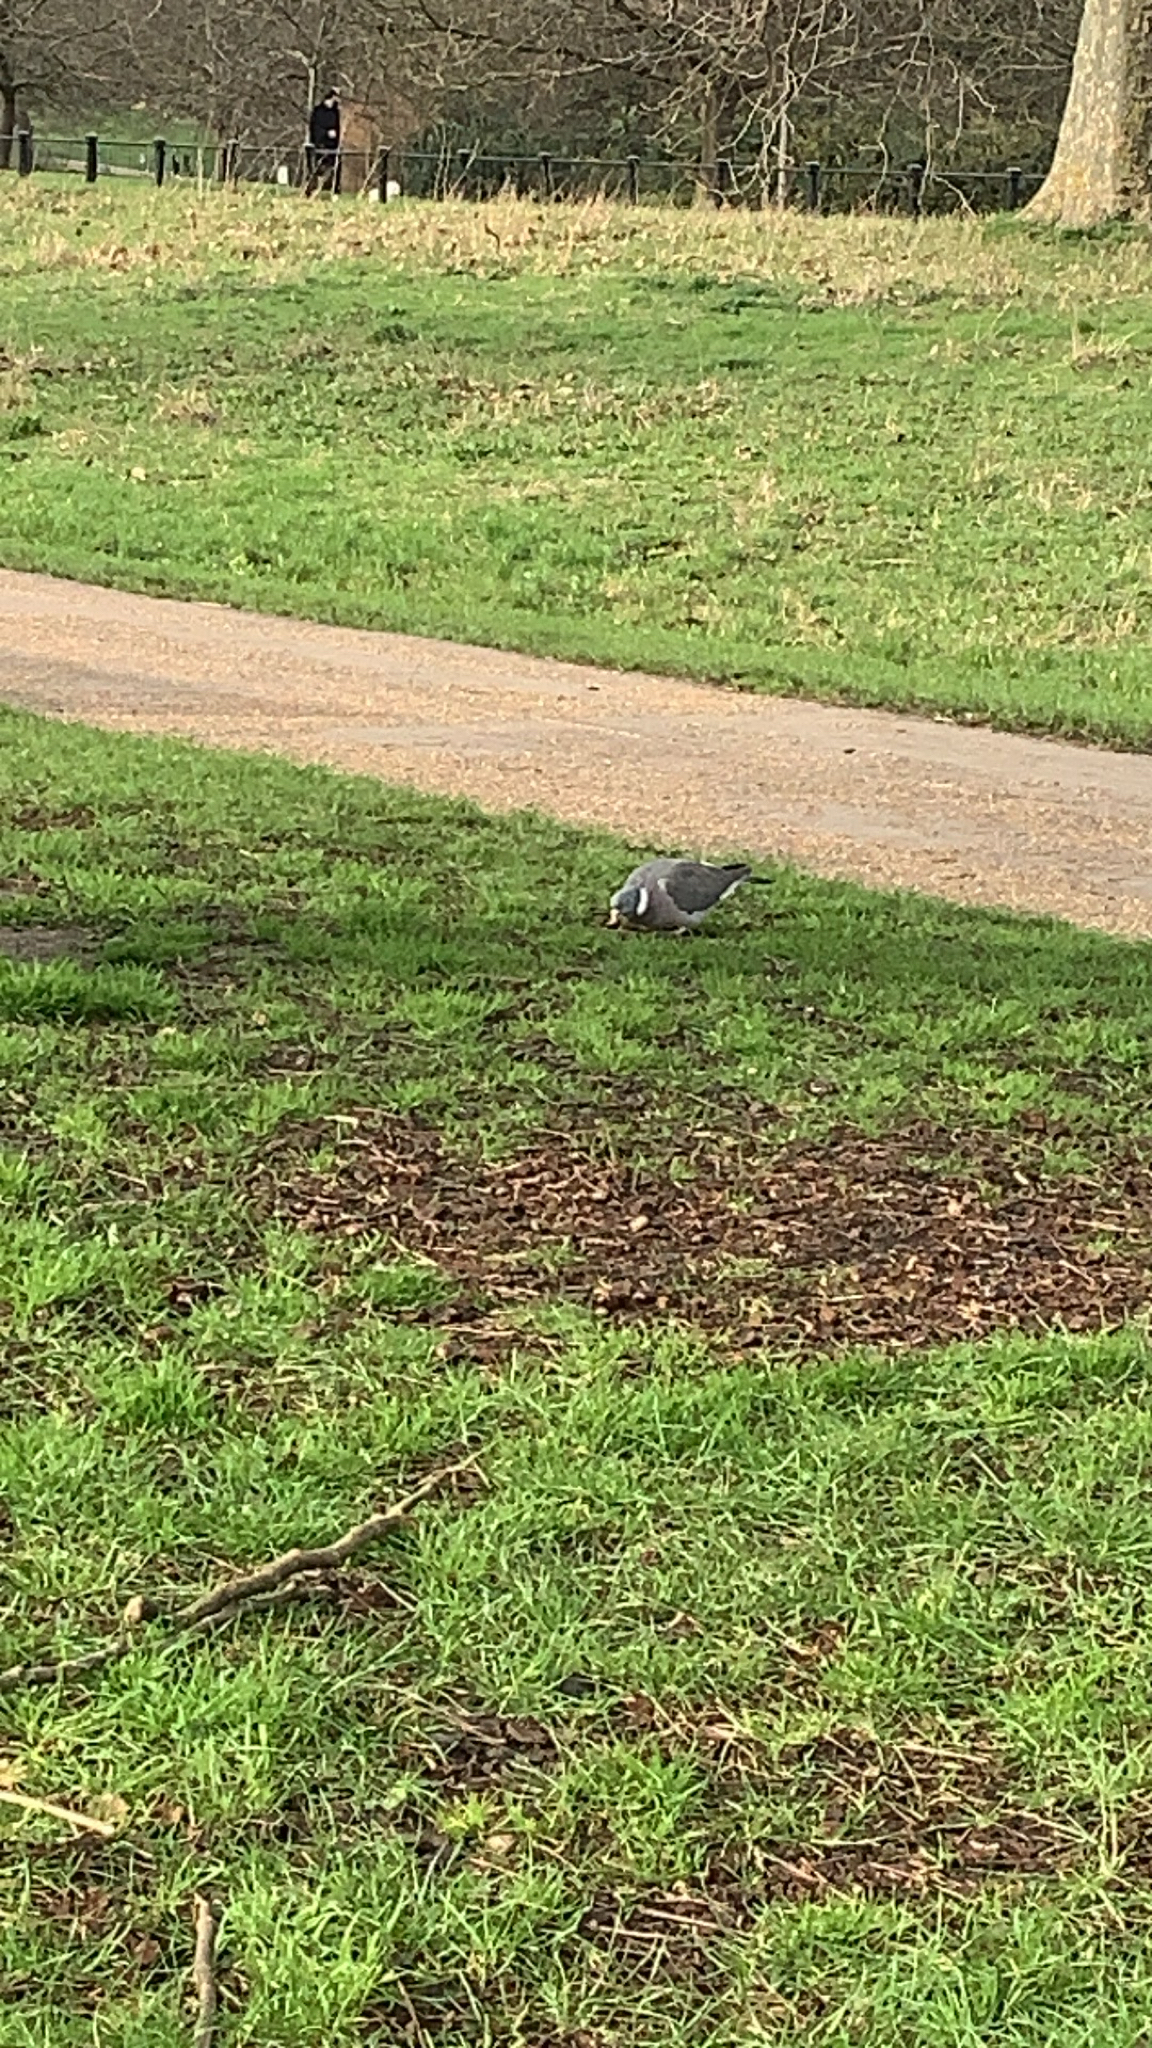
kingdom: Animalia
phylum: Chordata
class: Aves
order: Columbiformes
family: Columbidae
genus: Columba
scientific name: Columba palumbus
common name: Common wood pigeon
